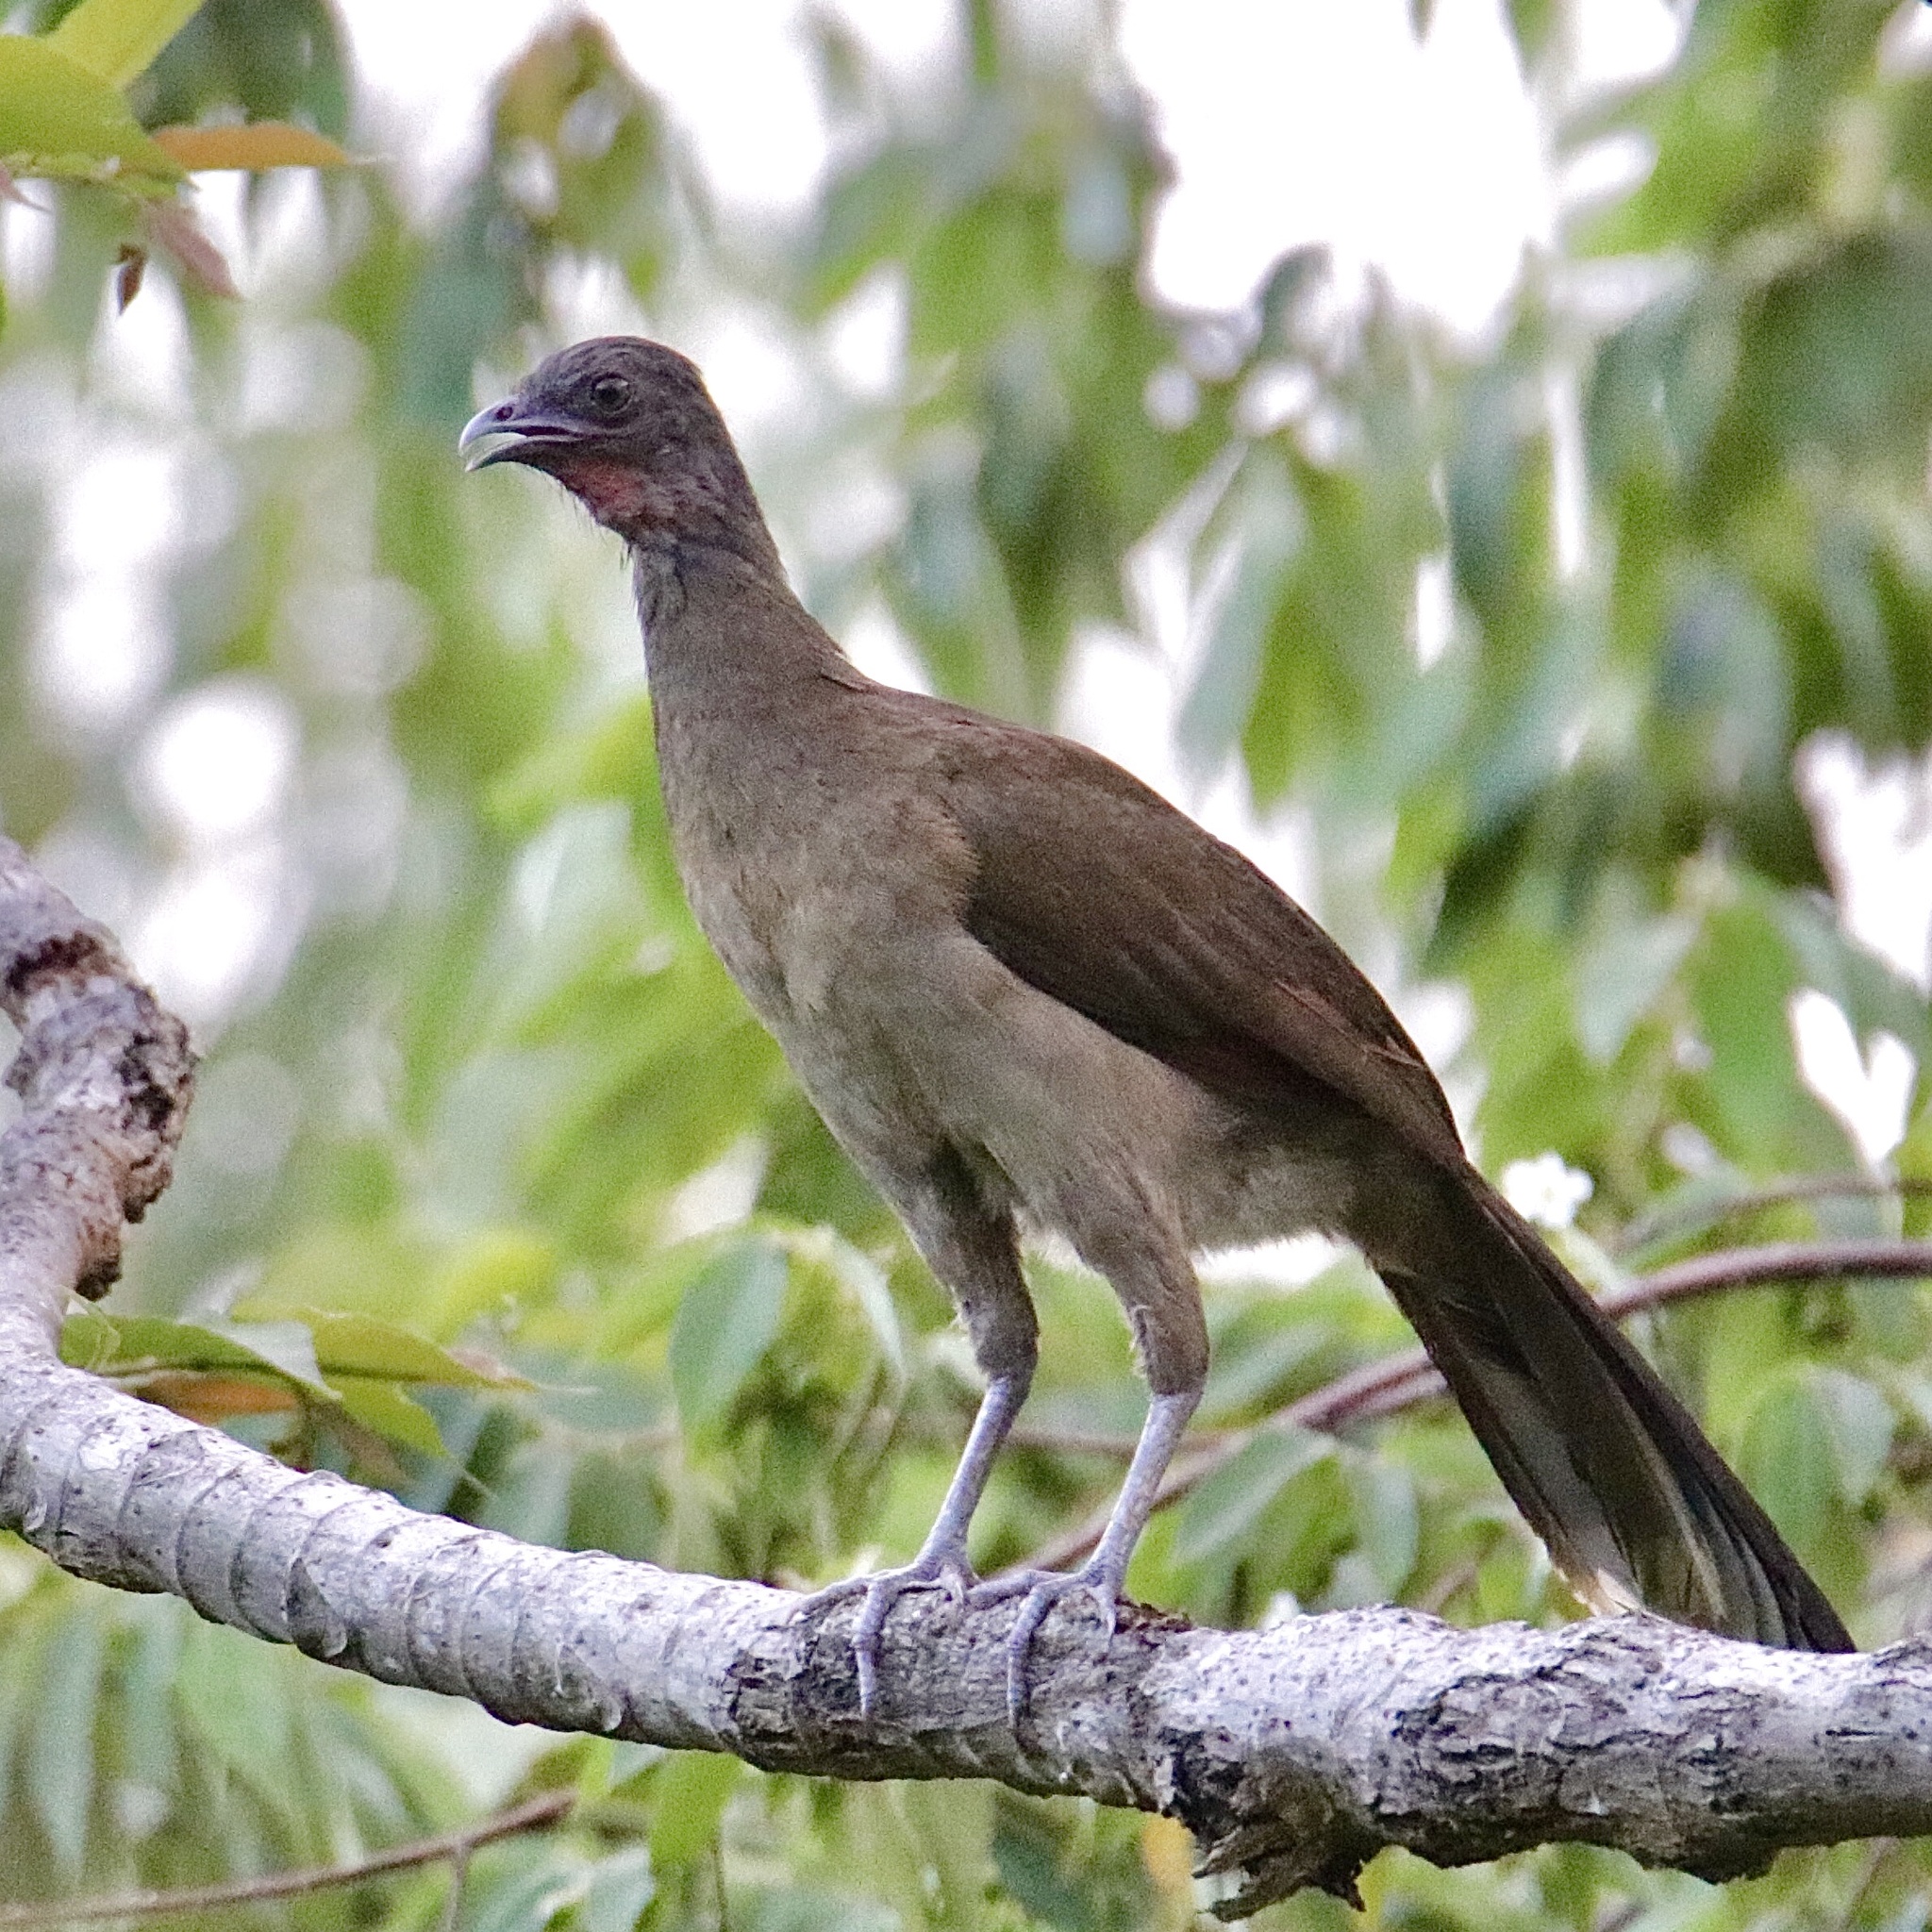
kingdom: Animalia
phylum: Chordata
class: Aves
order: Galliformes
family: Cracidae
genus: Ortalis
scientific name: Ortalis cinereiceps
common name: Grey-headed chachalaca
